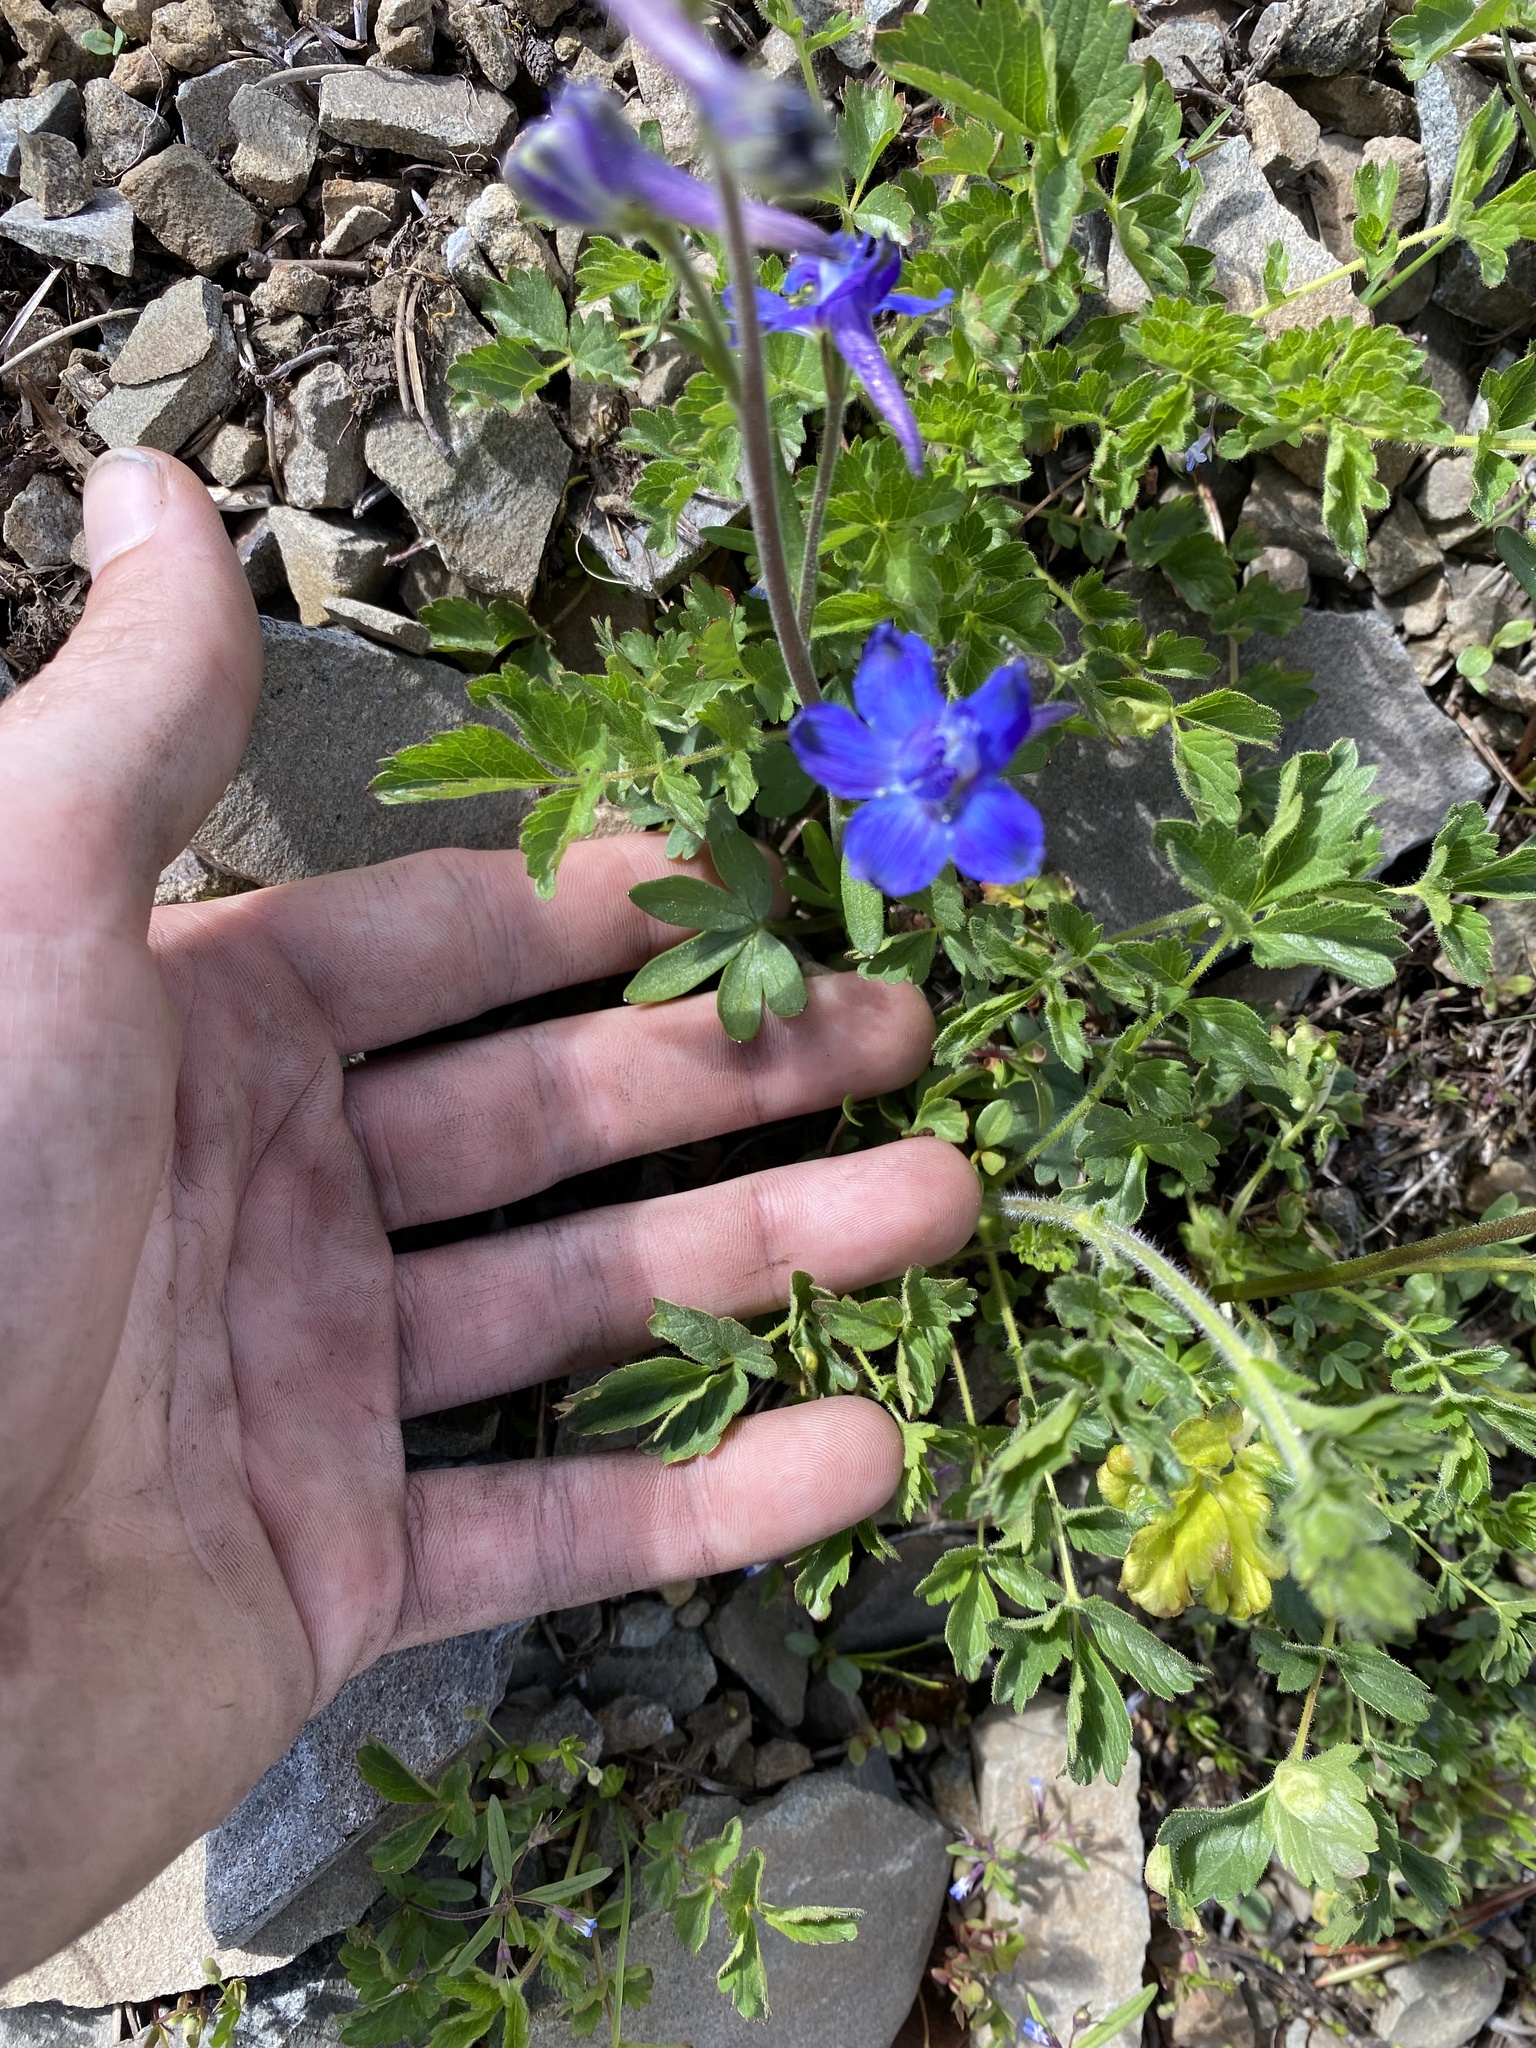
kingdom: Plantae
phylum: Tracheophyta
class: Magnoliopsida
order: Ranunculales
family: Ranunculaceae
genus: Delphinium
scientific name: Delphinium nuttallianum
